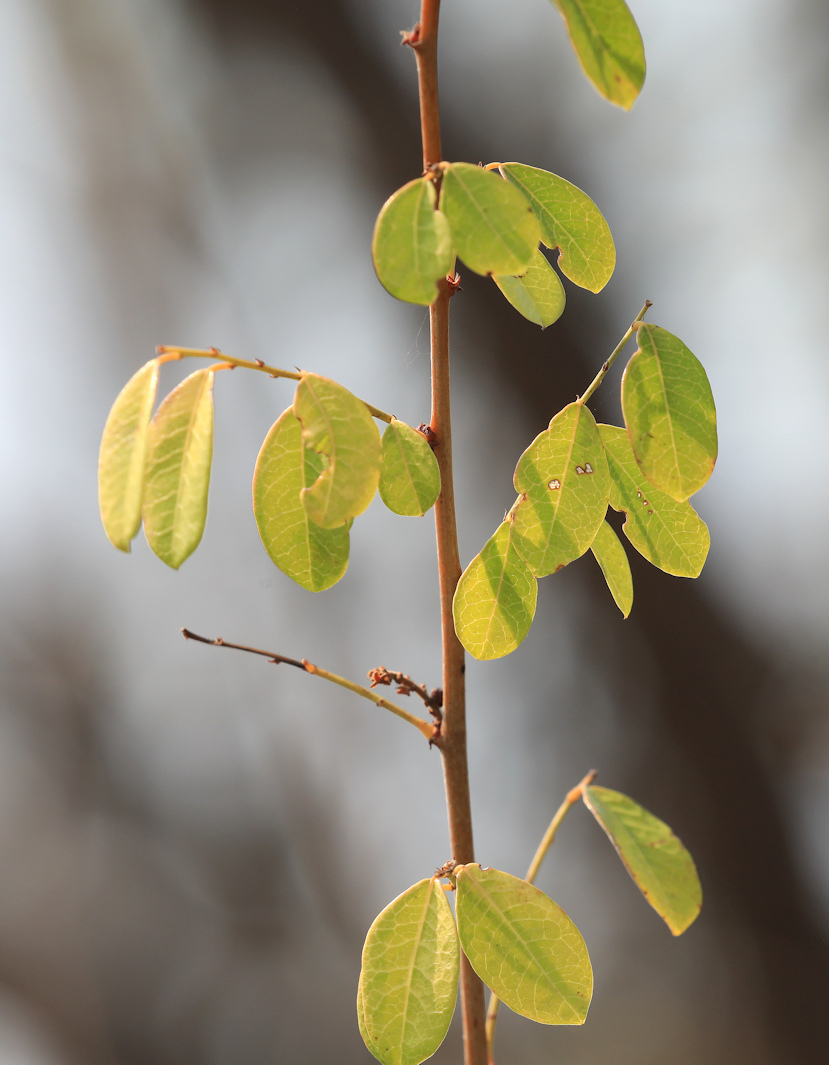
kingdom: Plantae
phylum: Tracheophyta
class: Magnoliopsida
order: Malpighiales
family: Phyllanthaceae
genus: Phyllanthus
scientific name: Phyllanthus reticulatus
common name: Potato bush
